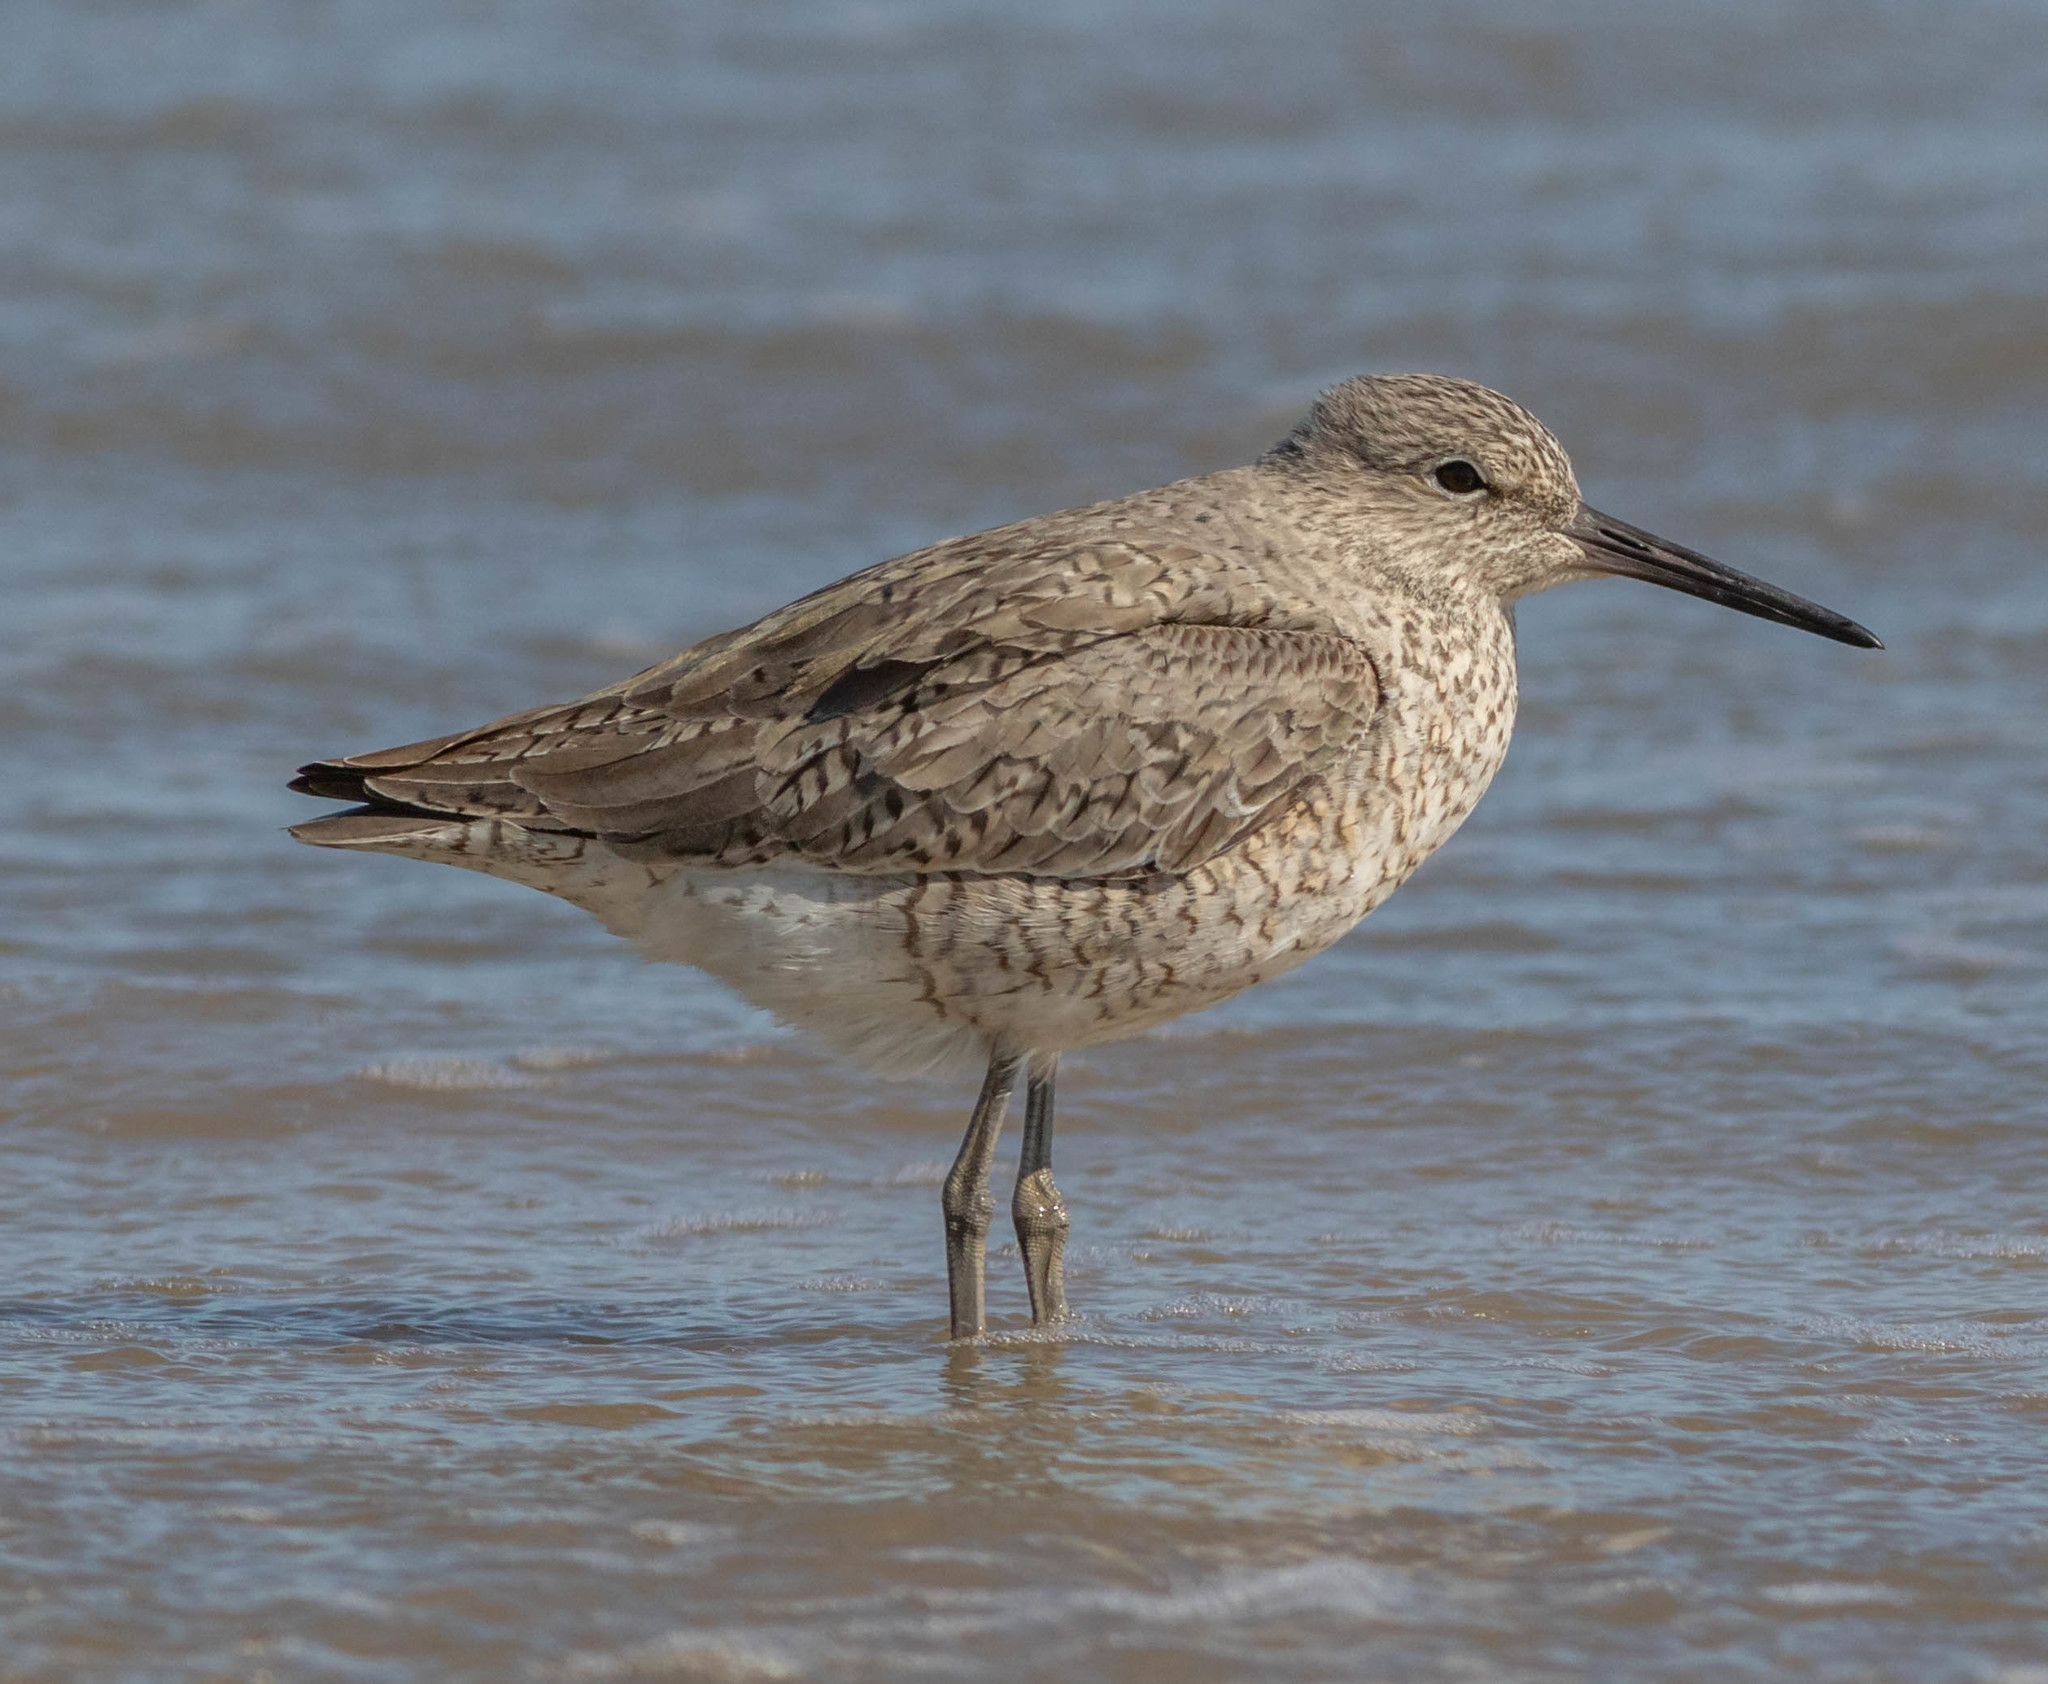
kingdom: Animalia
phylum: Chordata
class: Aves
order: Charadriiformes
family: Scolopacidae
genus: Tringa
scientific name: Tringa semipalmata
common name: Willet
